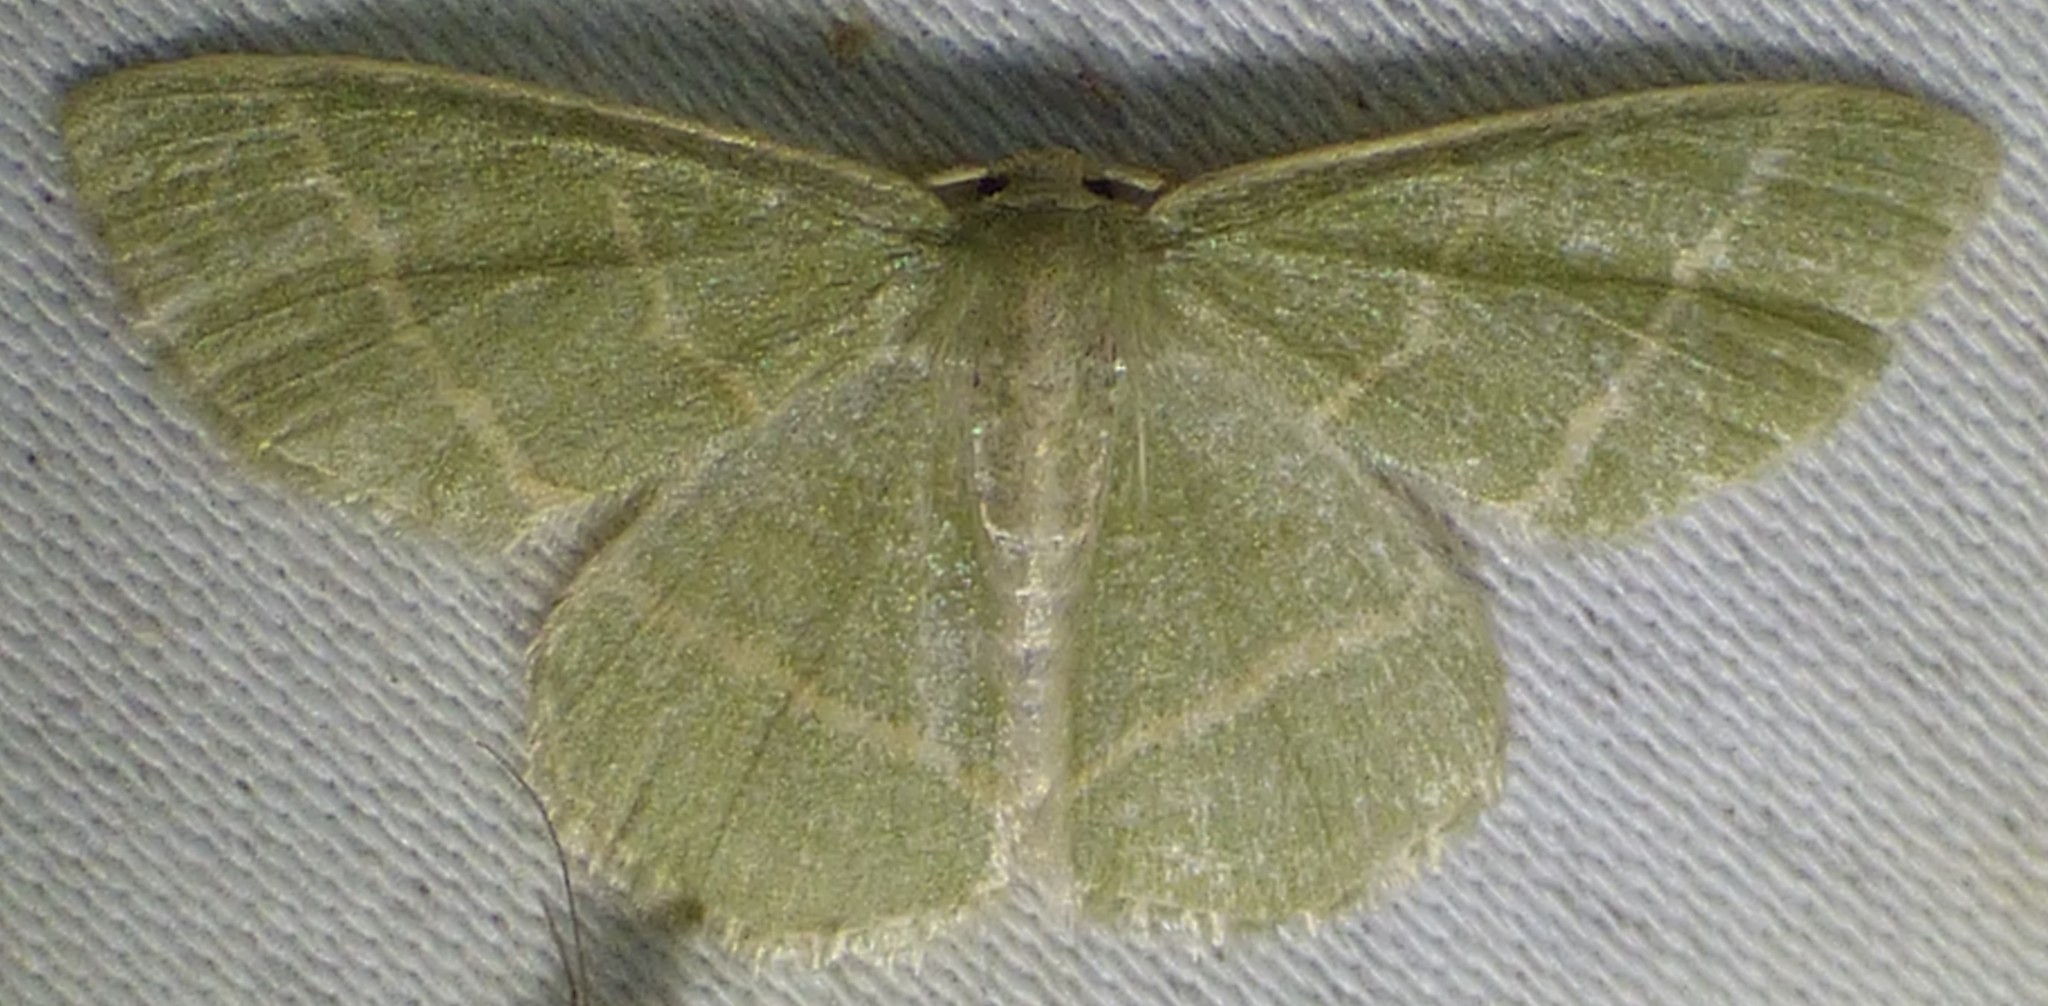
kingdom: Animalia
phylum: Arthropoda
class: Insecta
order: Lepidoptera
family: Geometridae
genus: Chlorochlamys
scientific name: Chlorochlamys chloroleucaria
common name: Blackberry looper
